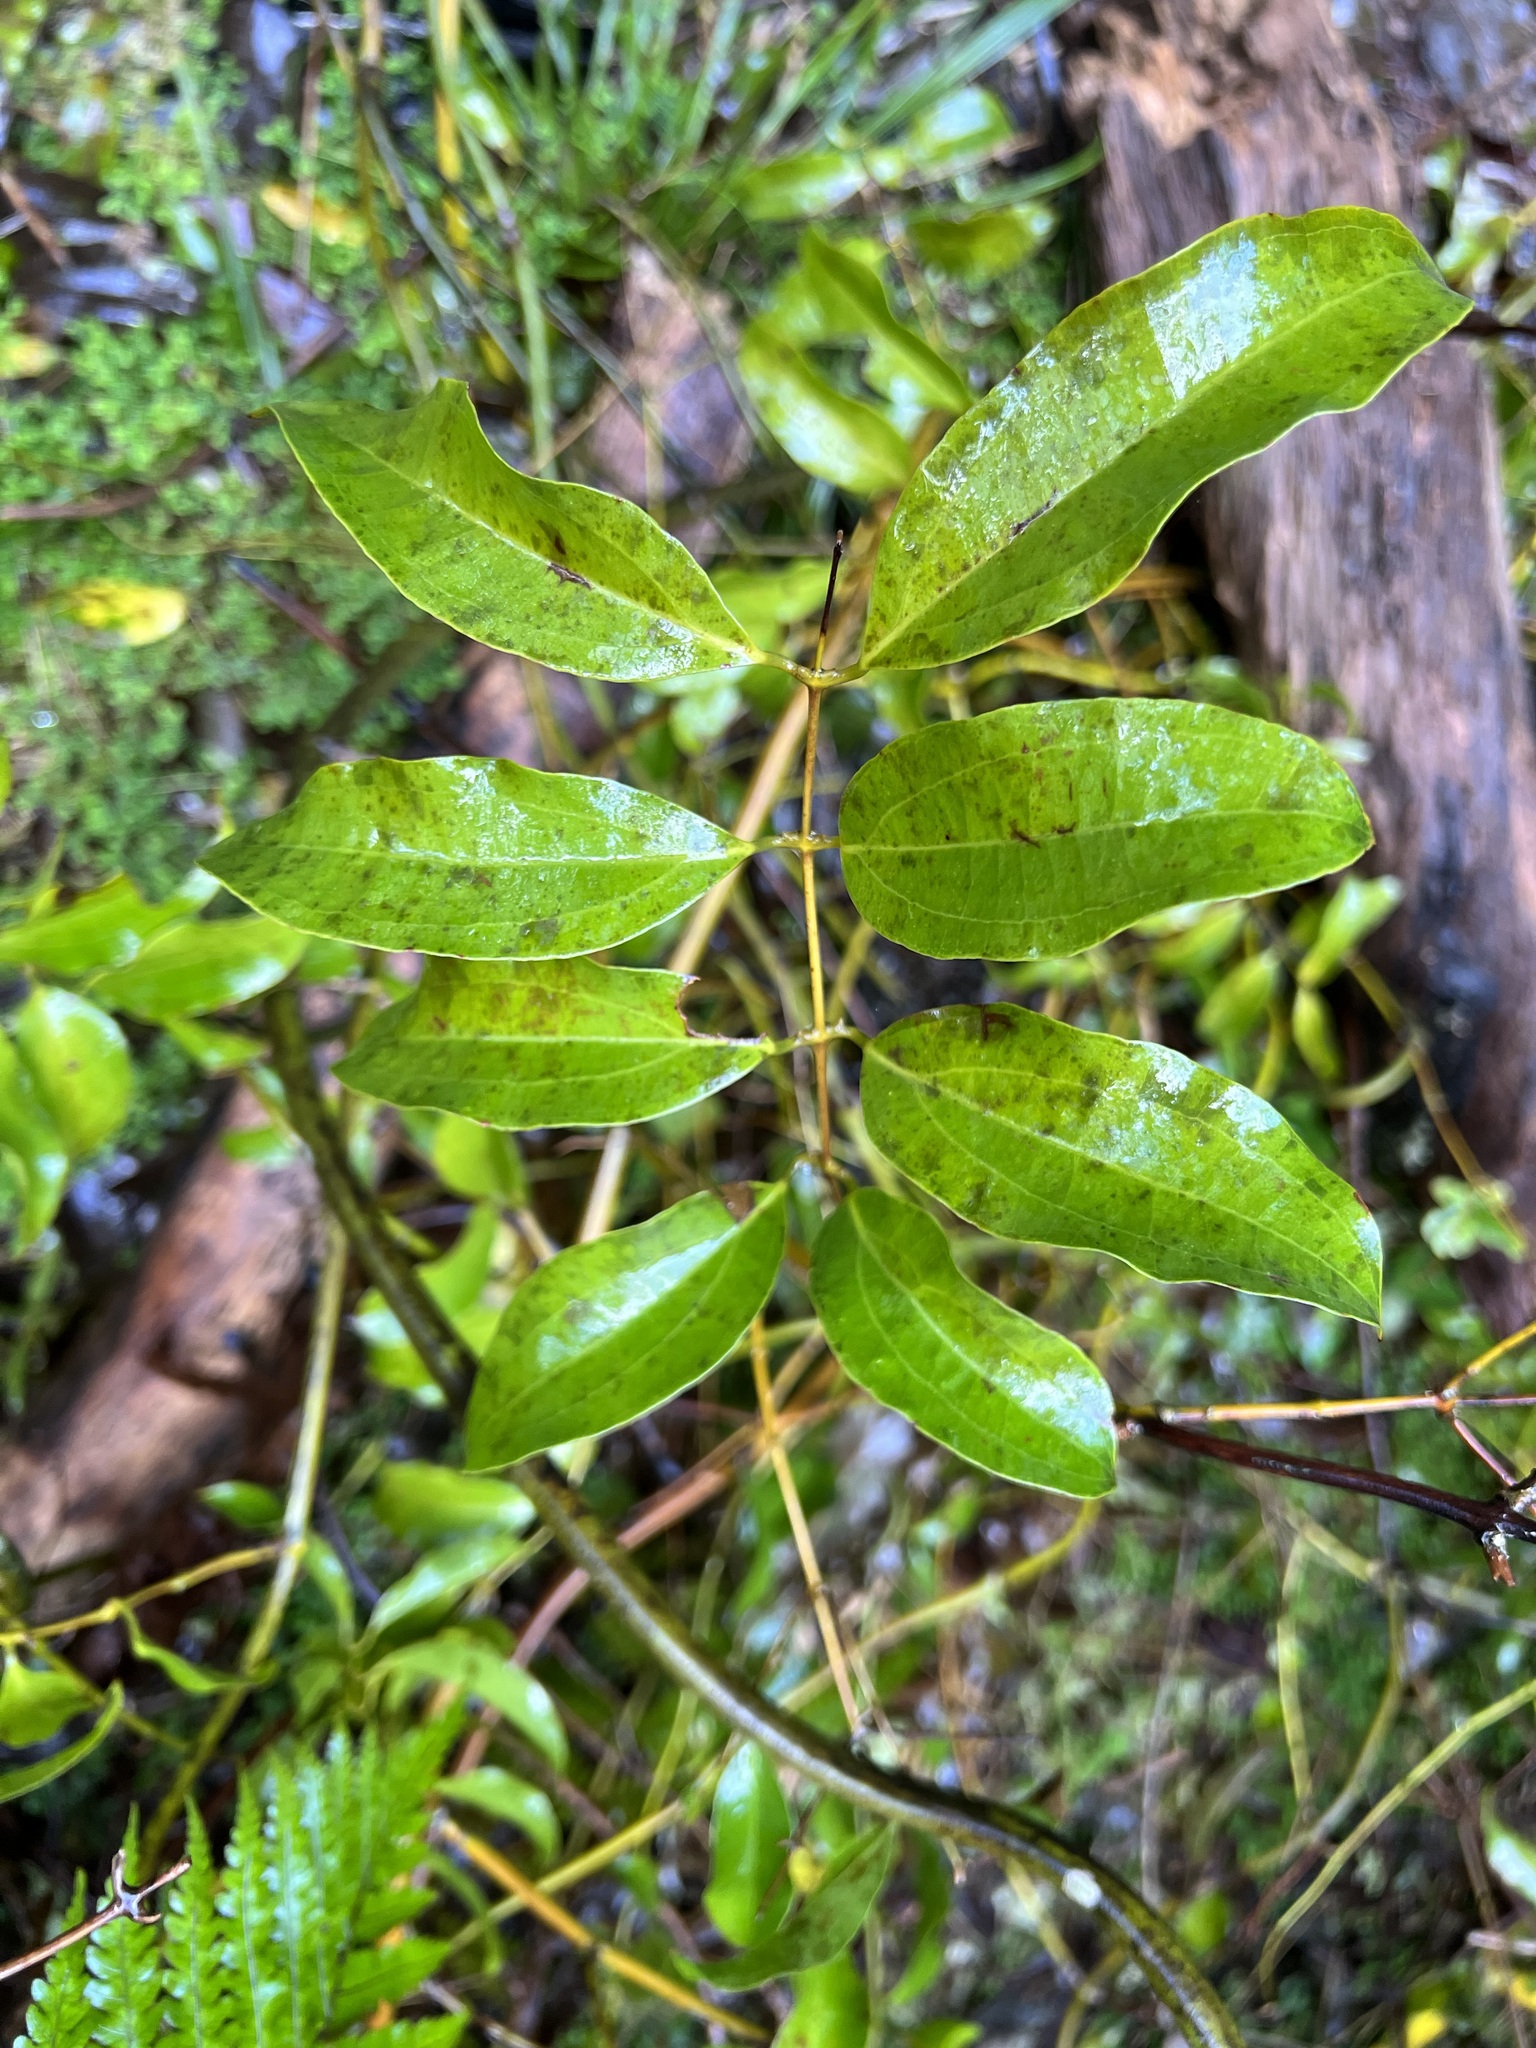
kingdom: Plantae
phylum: Tracheophyta
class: Liliopsida
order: Liliales
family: Ripogonaceae
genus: Ripogonum
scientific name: Ripogonum scandens
